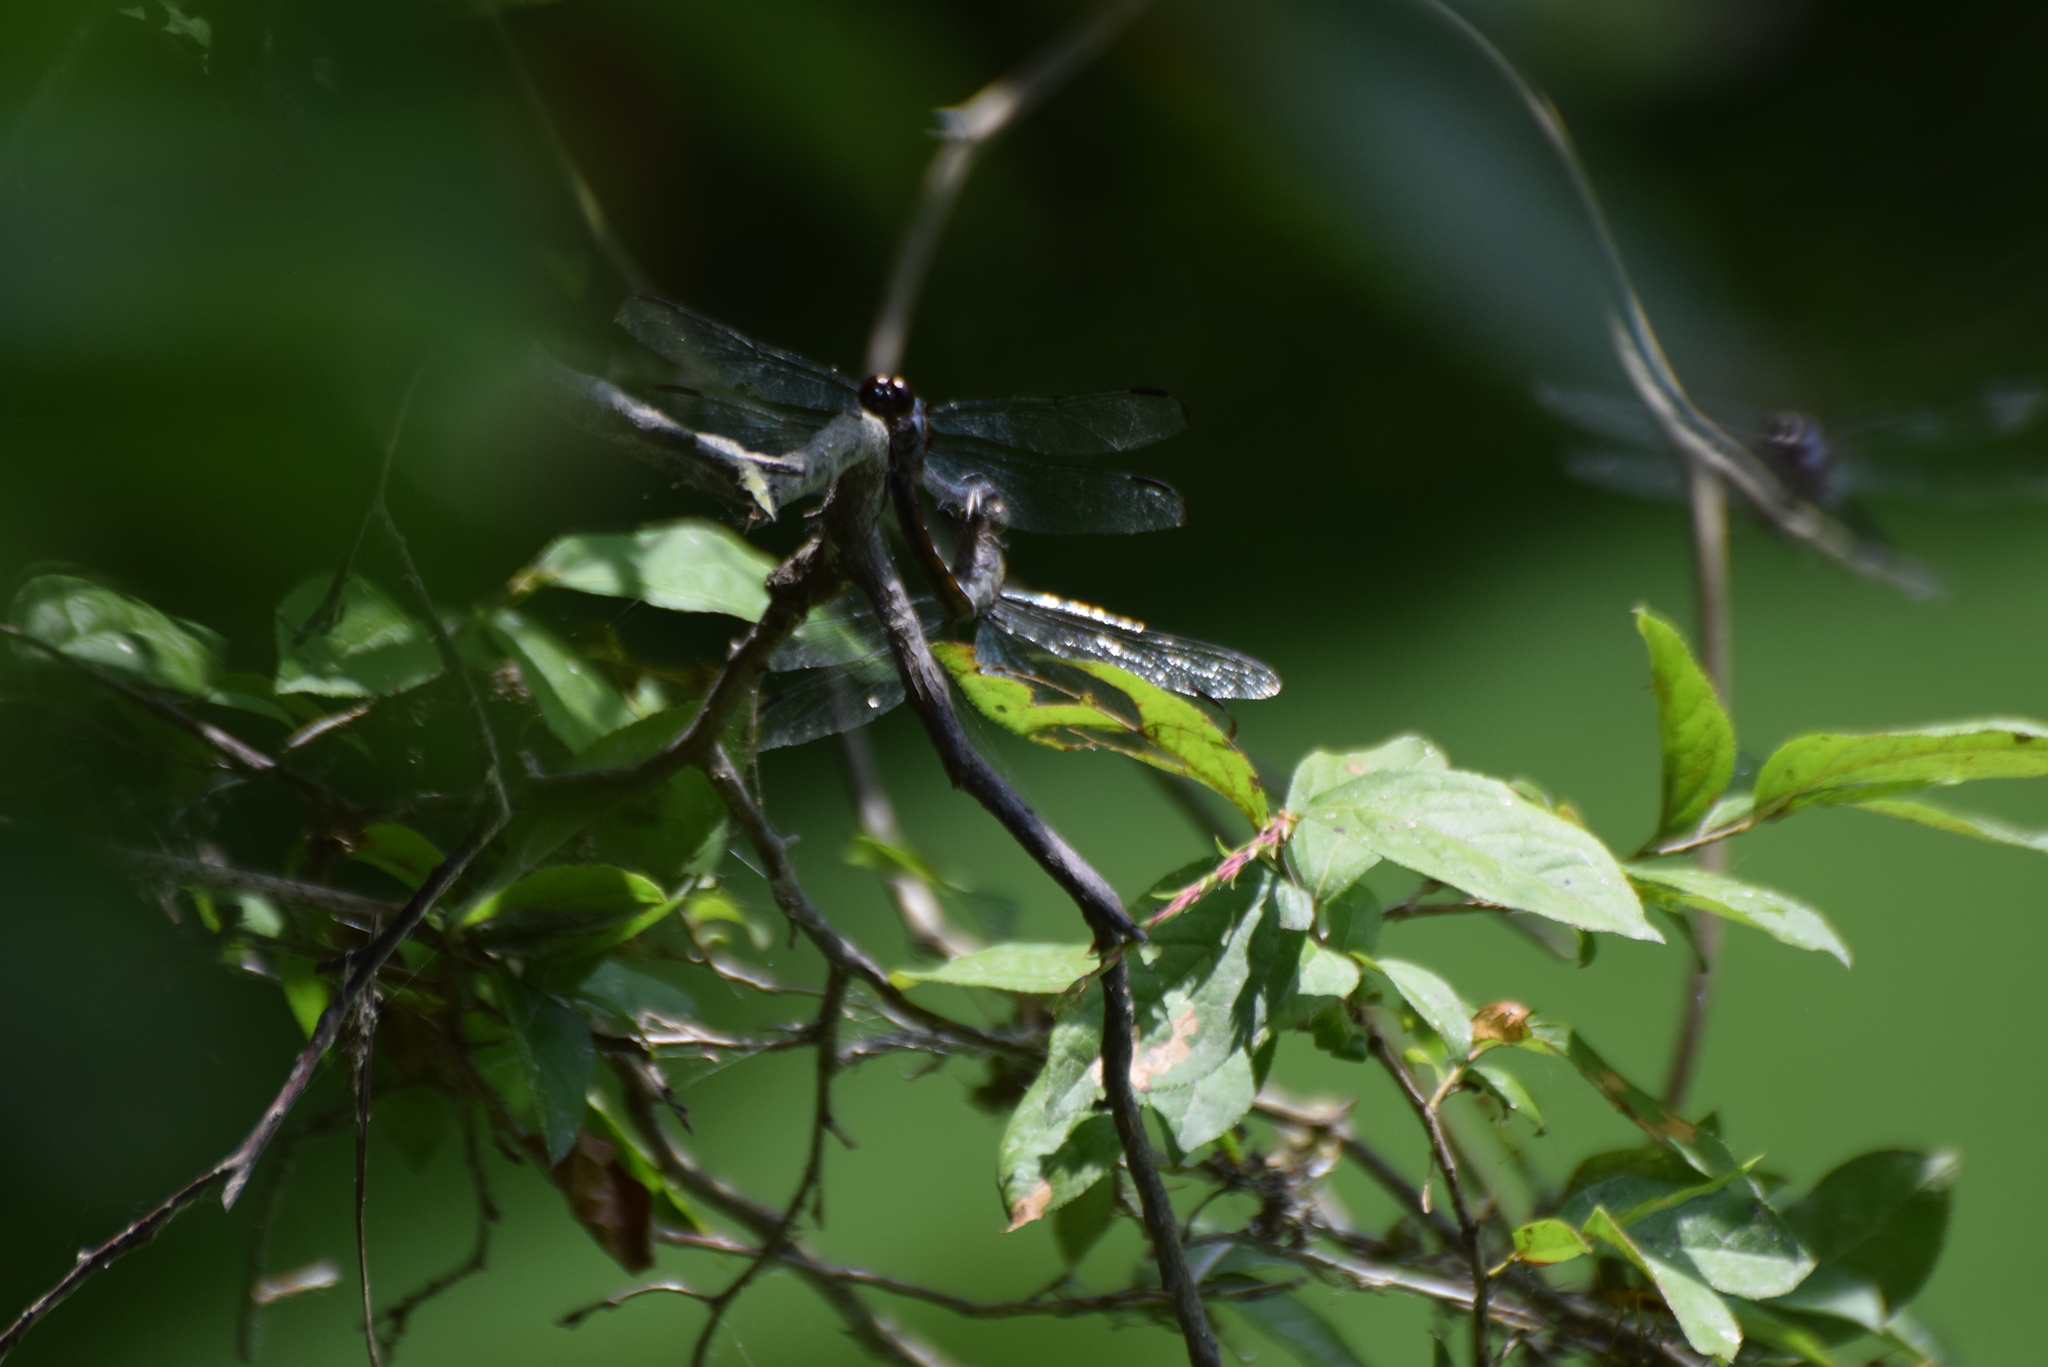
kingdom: Animalia
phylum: Arthropoda
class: Insecta
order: Odonata
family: Libellulidae
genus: Libellula
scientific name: Libellula incesta
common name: Slaty skimmer
